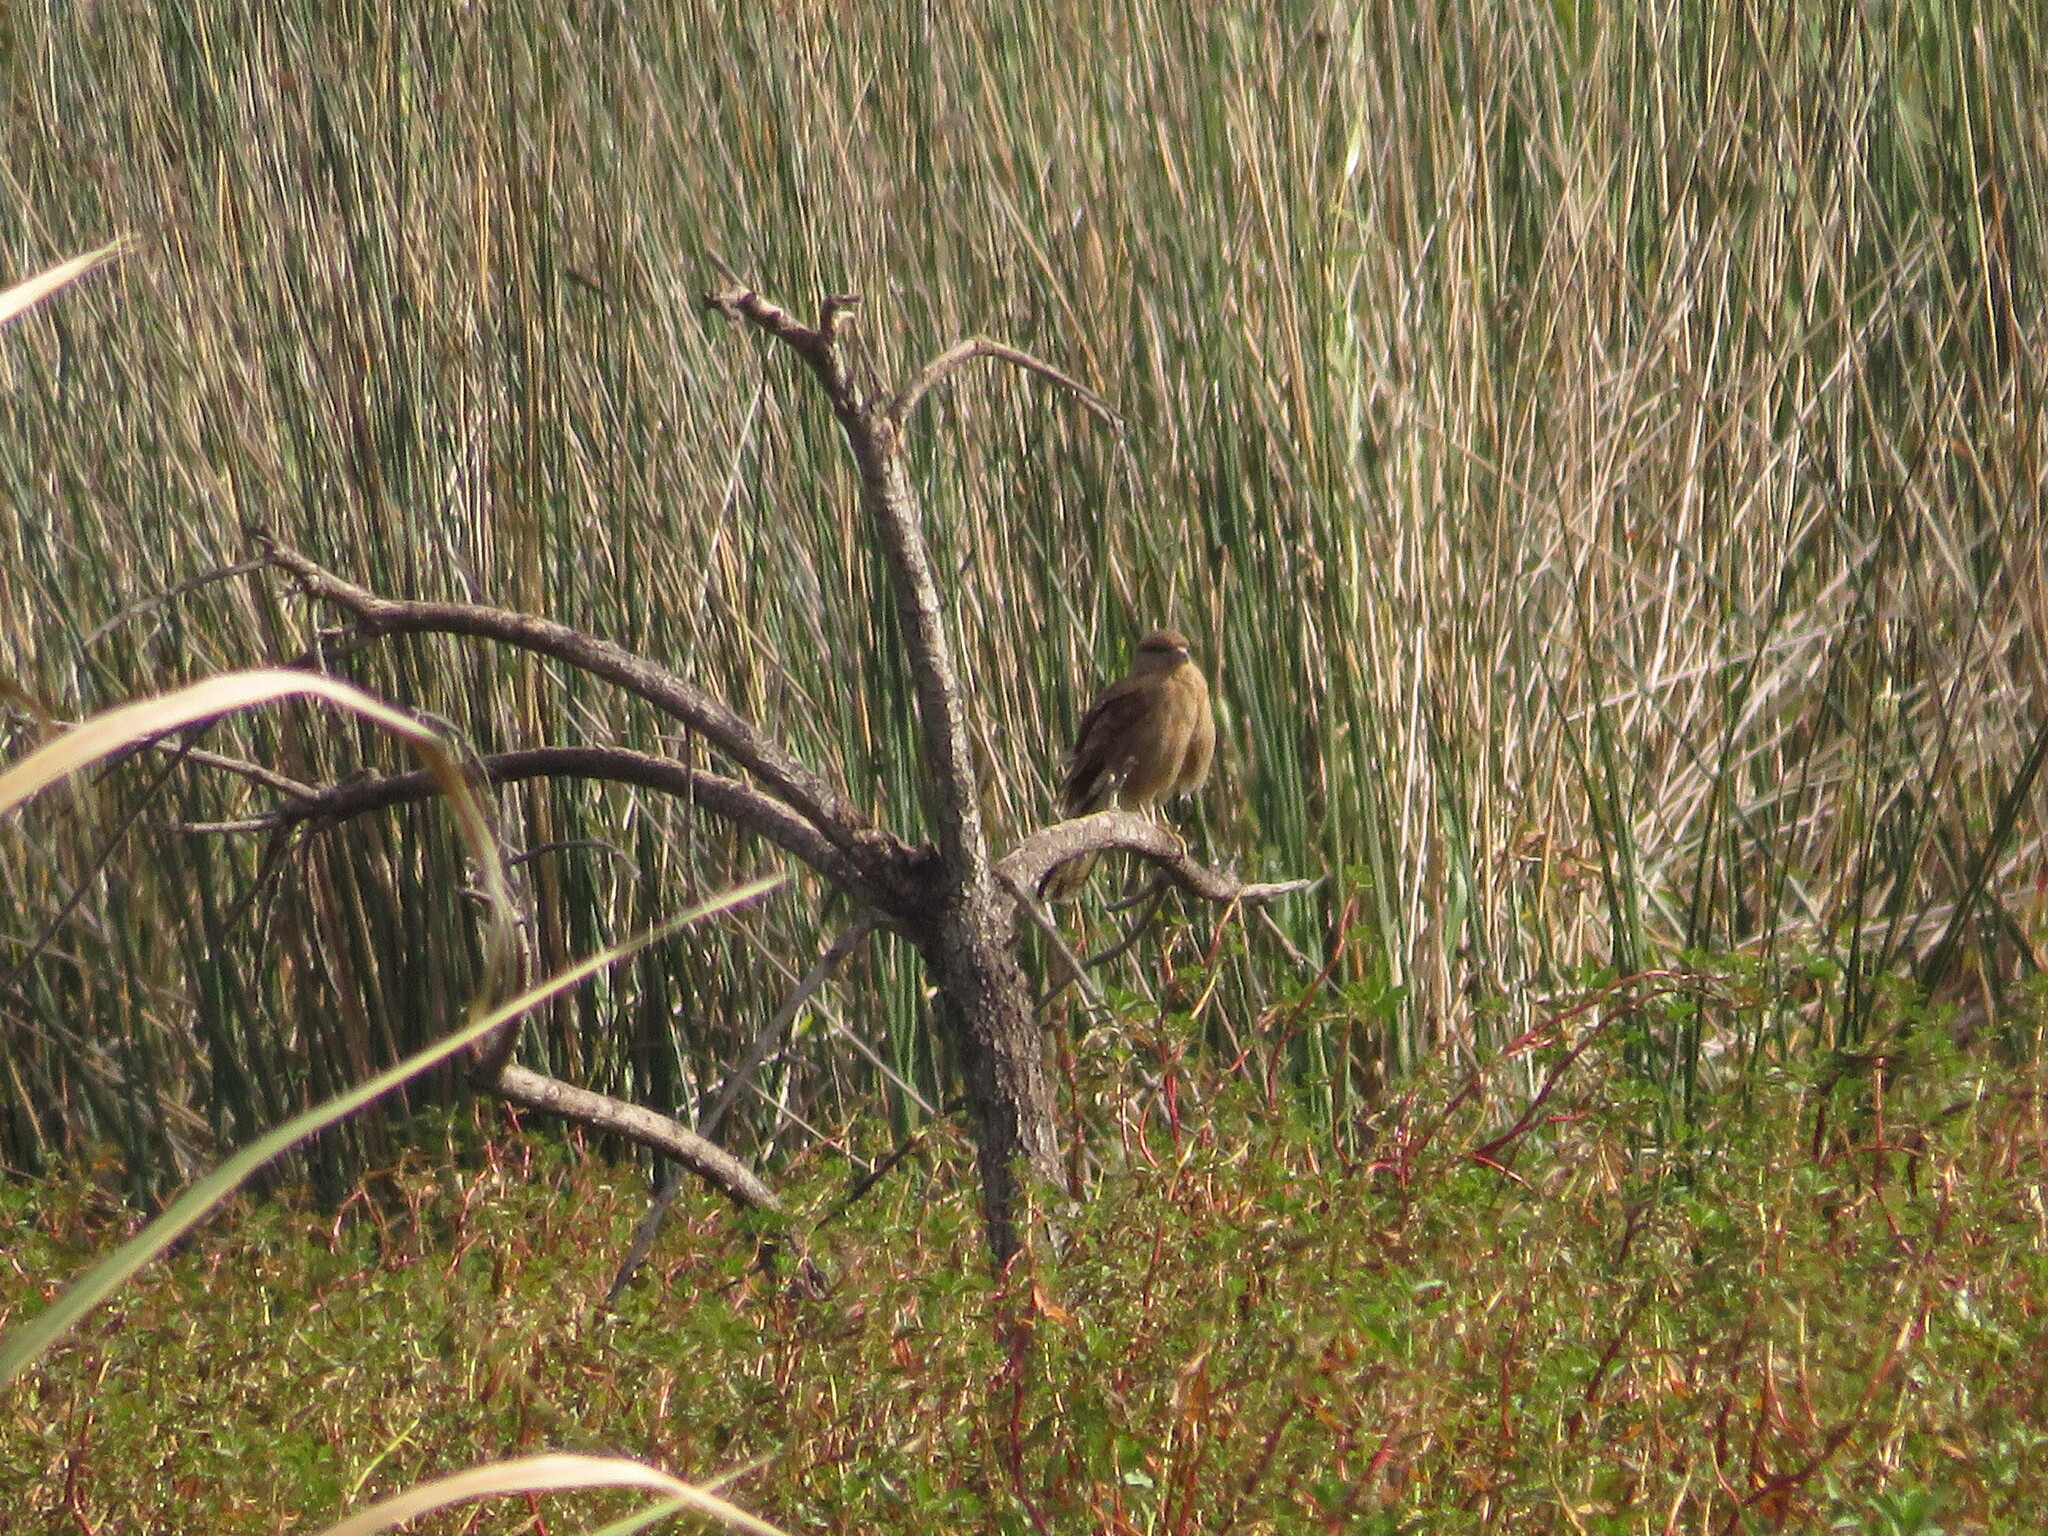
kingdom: Animalia
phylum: Chordata
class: Aves
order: Falconiformes
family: Falconidae
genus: Daptrius
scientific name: Daptrius
